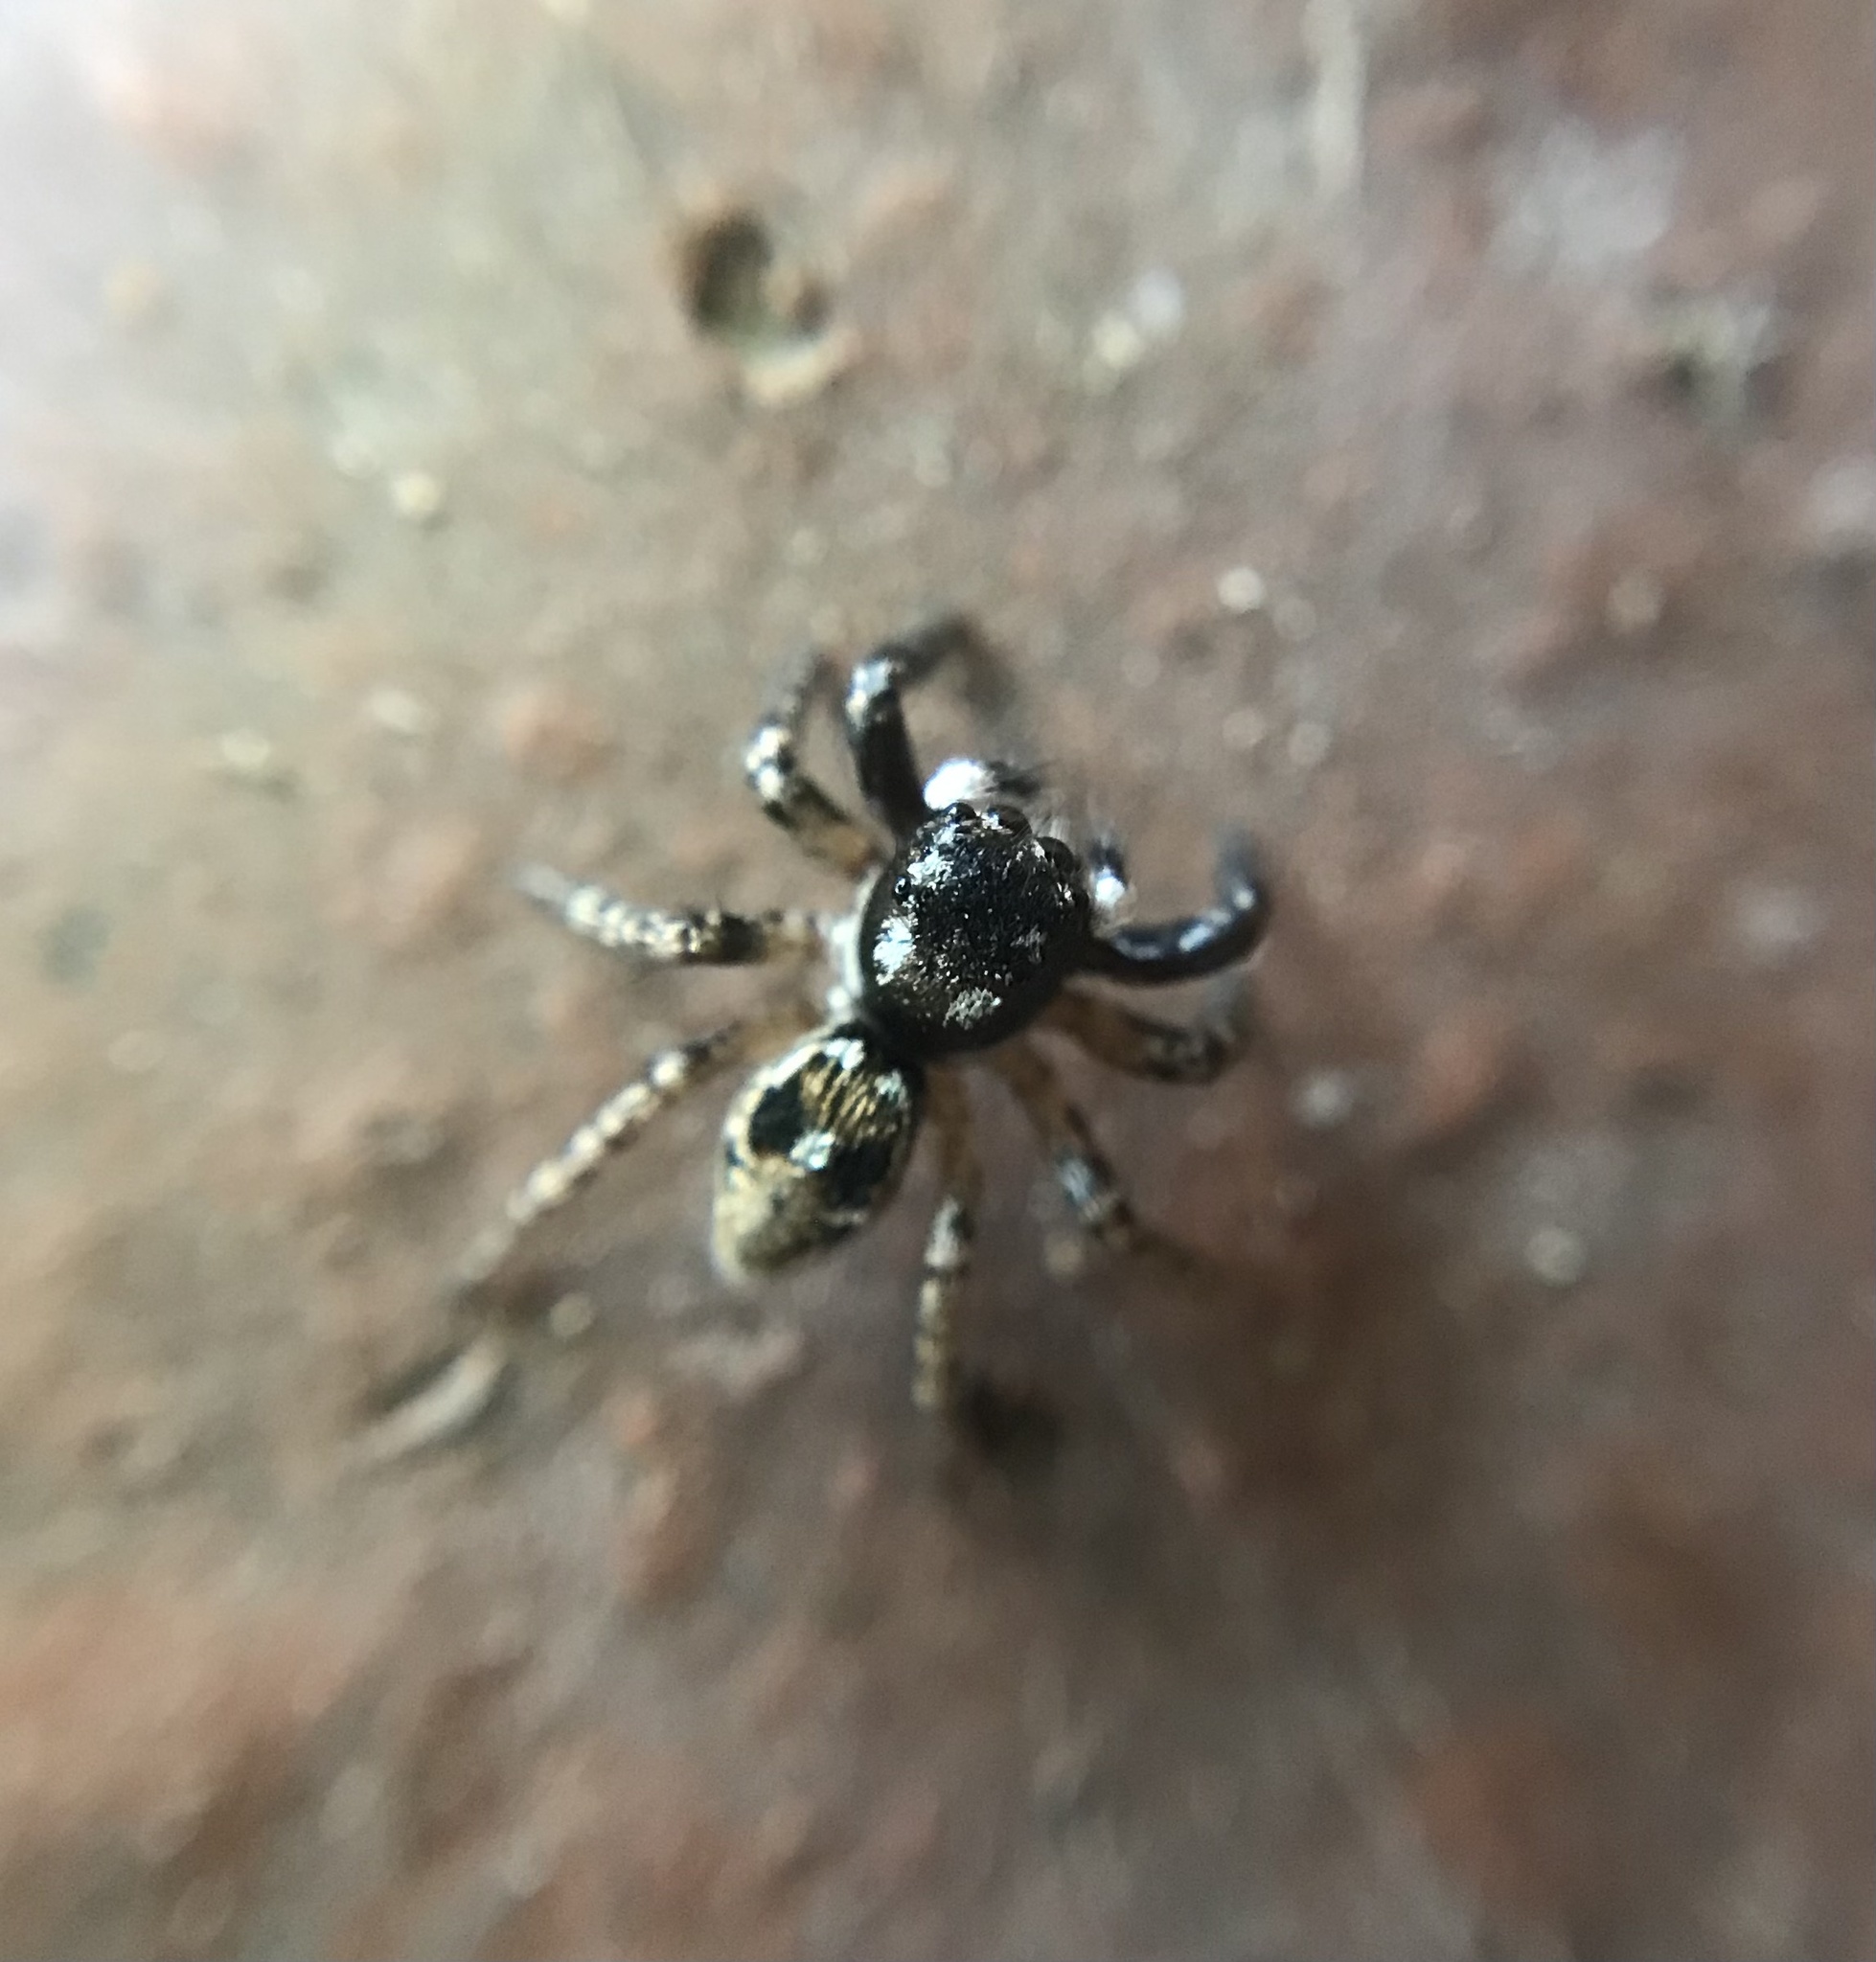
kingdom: Animalia
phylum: Arthropoda
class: Arachnida
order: Araneae
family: Salticidae
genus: Anasaitis
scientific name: Anasaitis canosa
